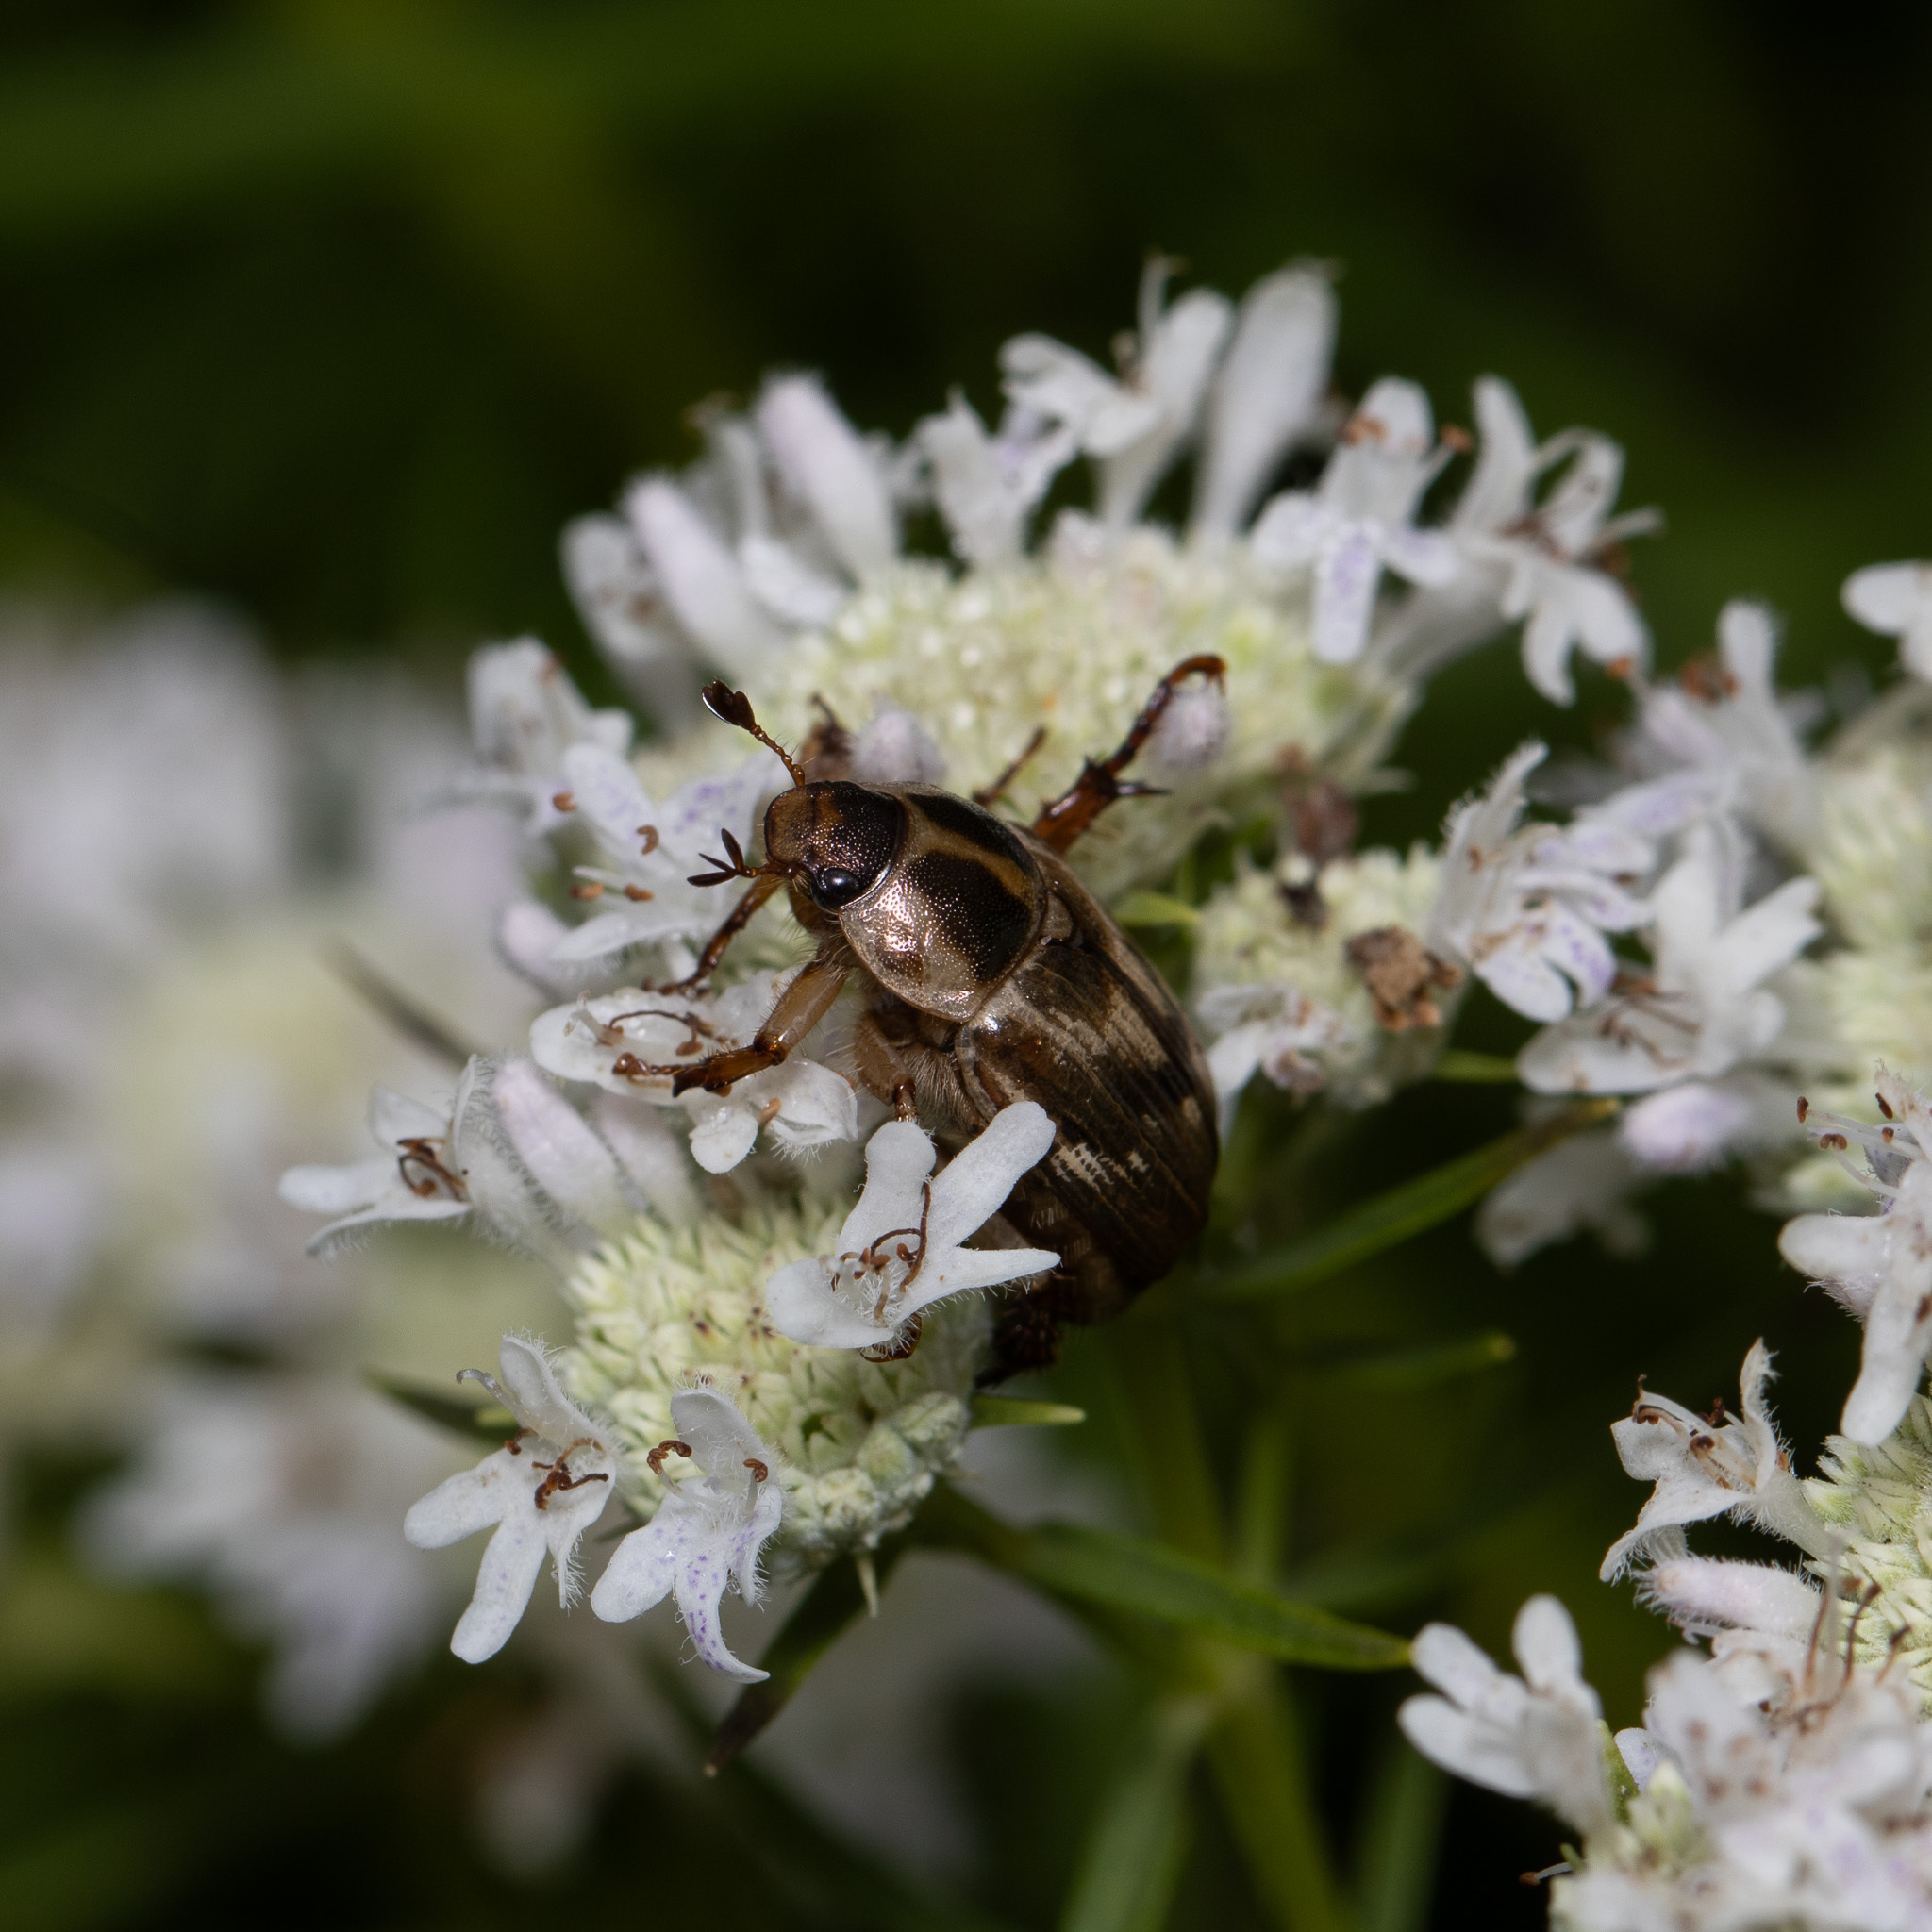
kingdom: Animalia
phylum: Arthropoda
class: Insecta
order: Coleoptera
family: Scarabaeidae
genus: Exomala
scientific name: Exomala orientalis
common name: Oriental beetle
